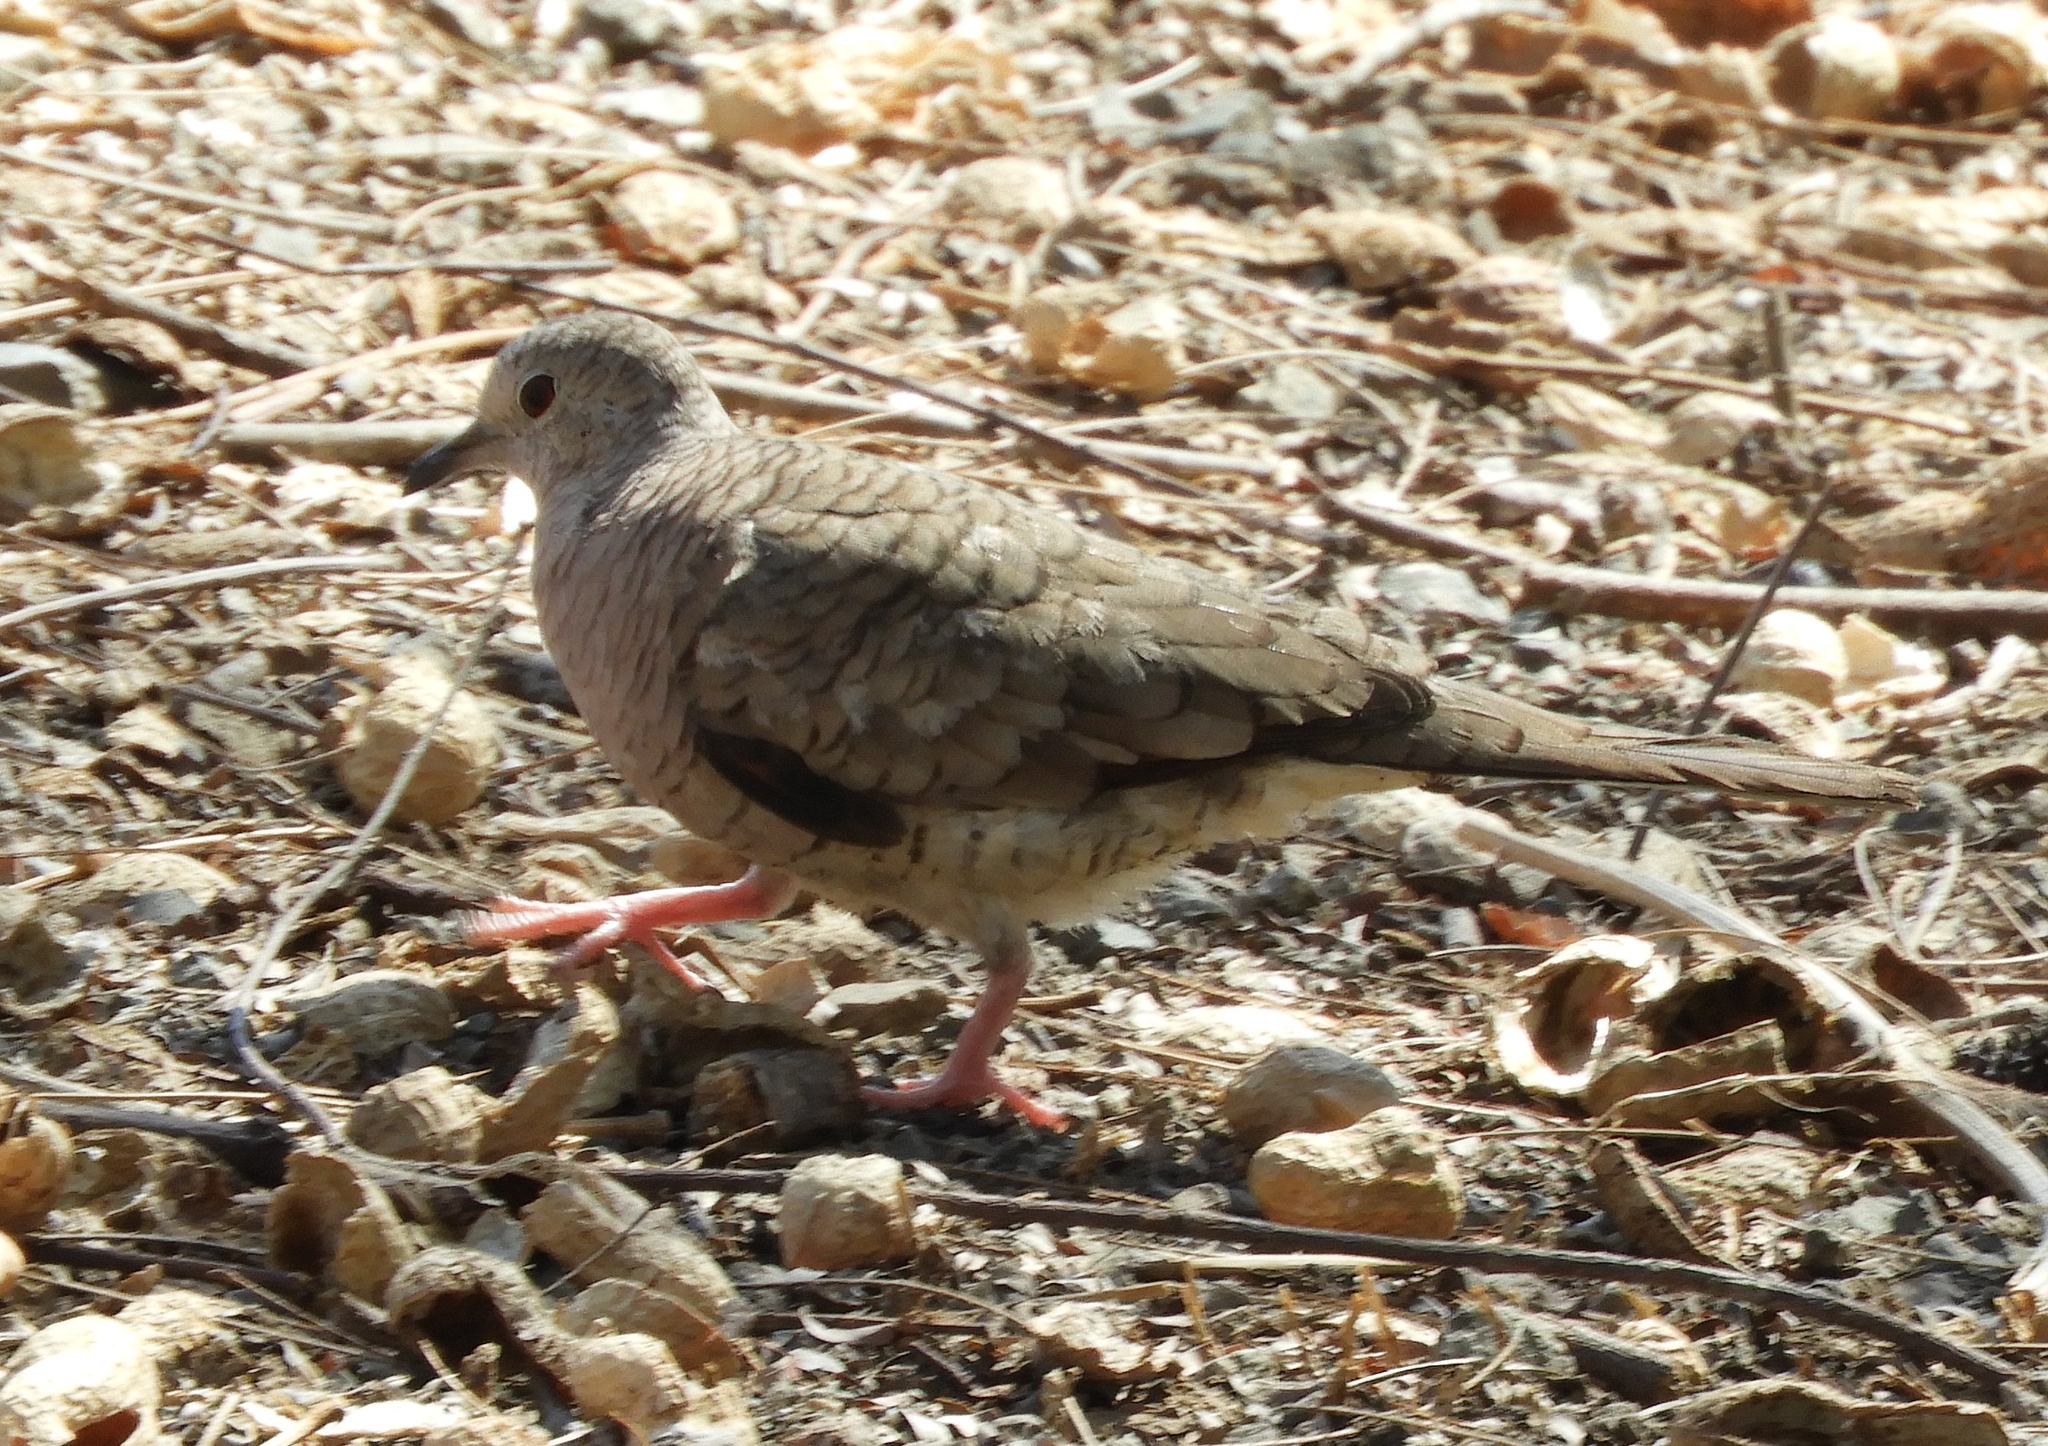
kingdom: Animalia
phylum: Chordata
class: Aves
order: Columbiformes
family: Columbidae
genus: Columbina
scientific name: Columbina inca
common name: Inca dove
